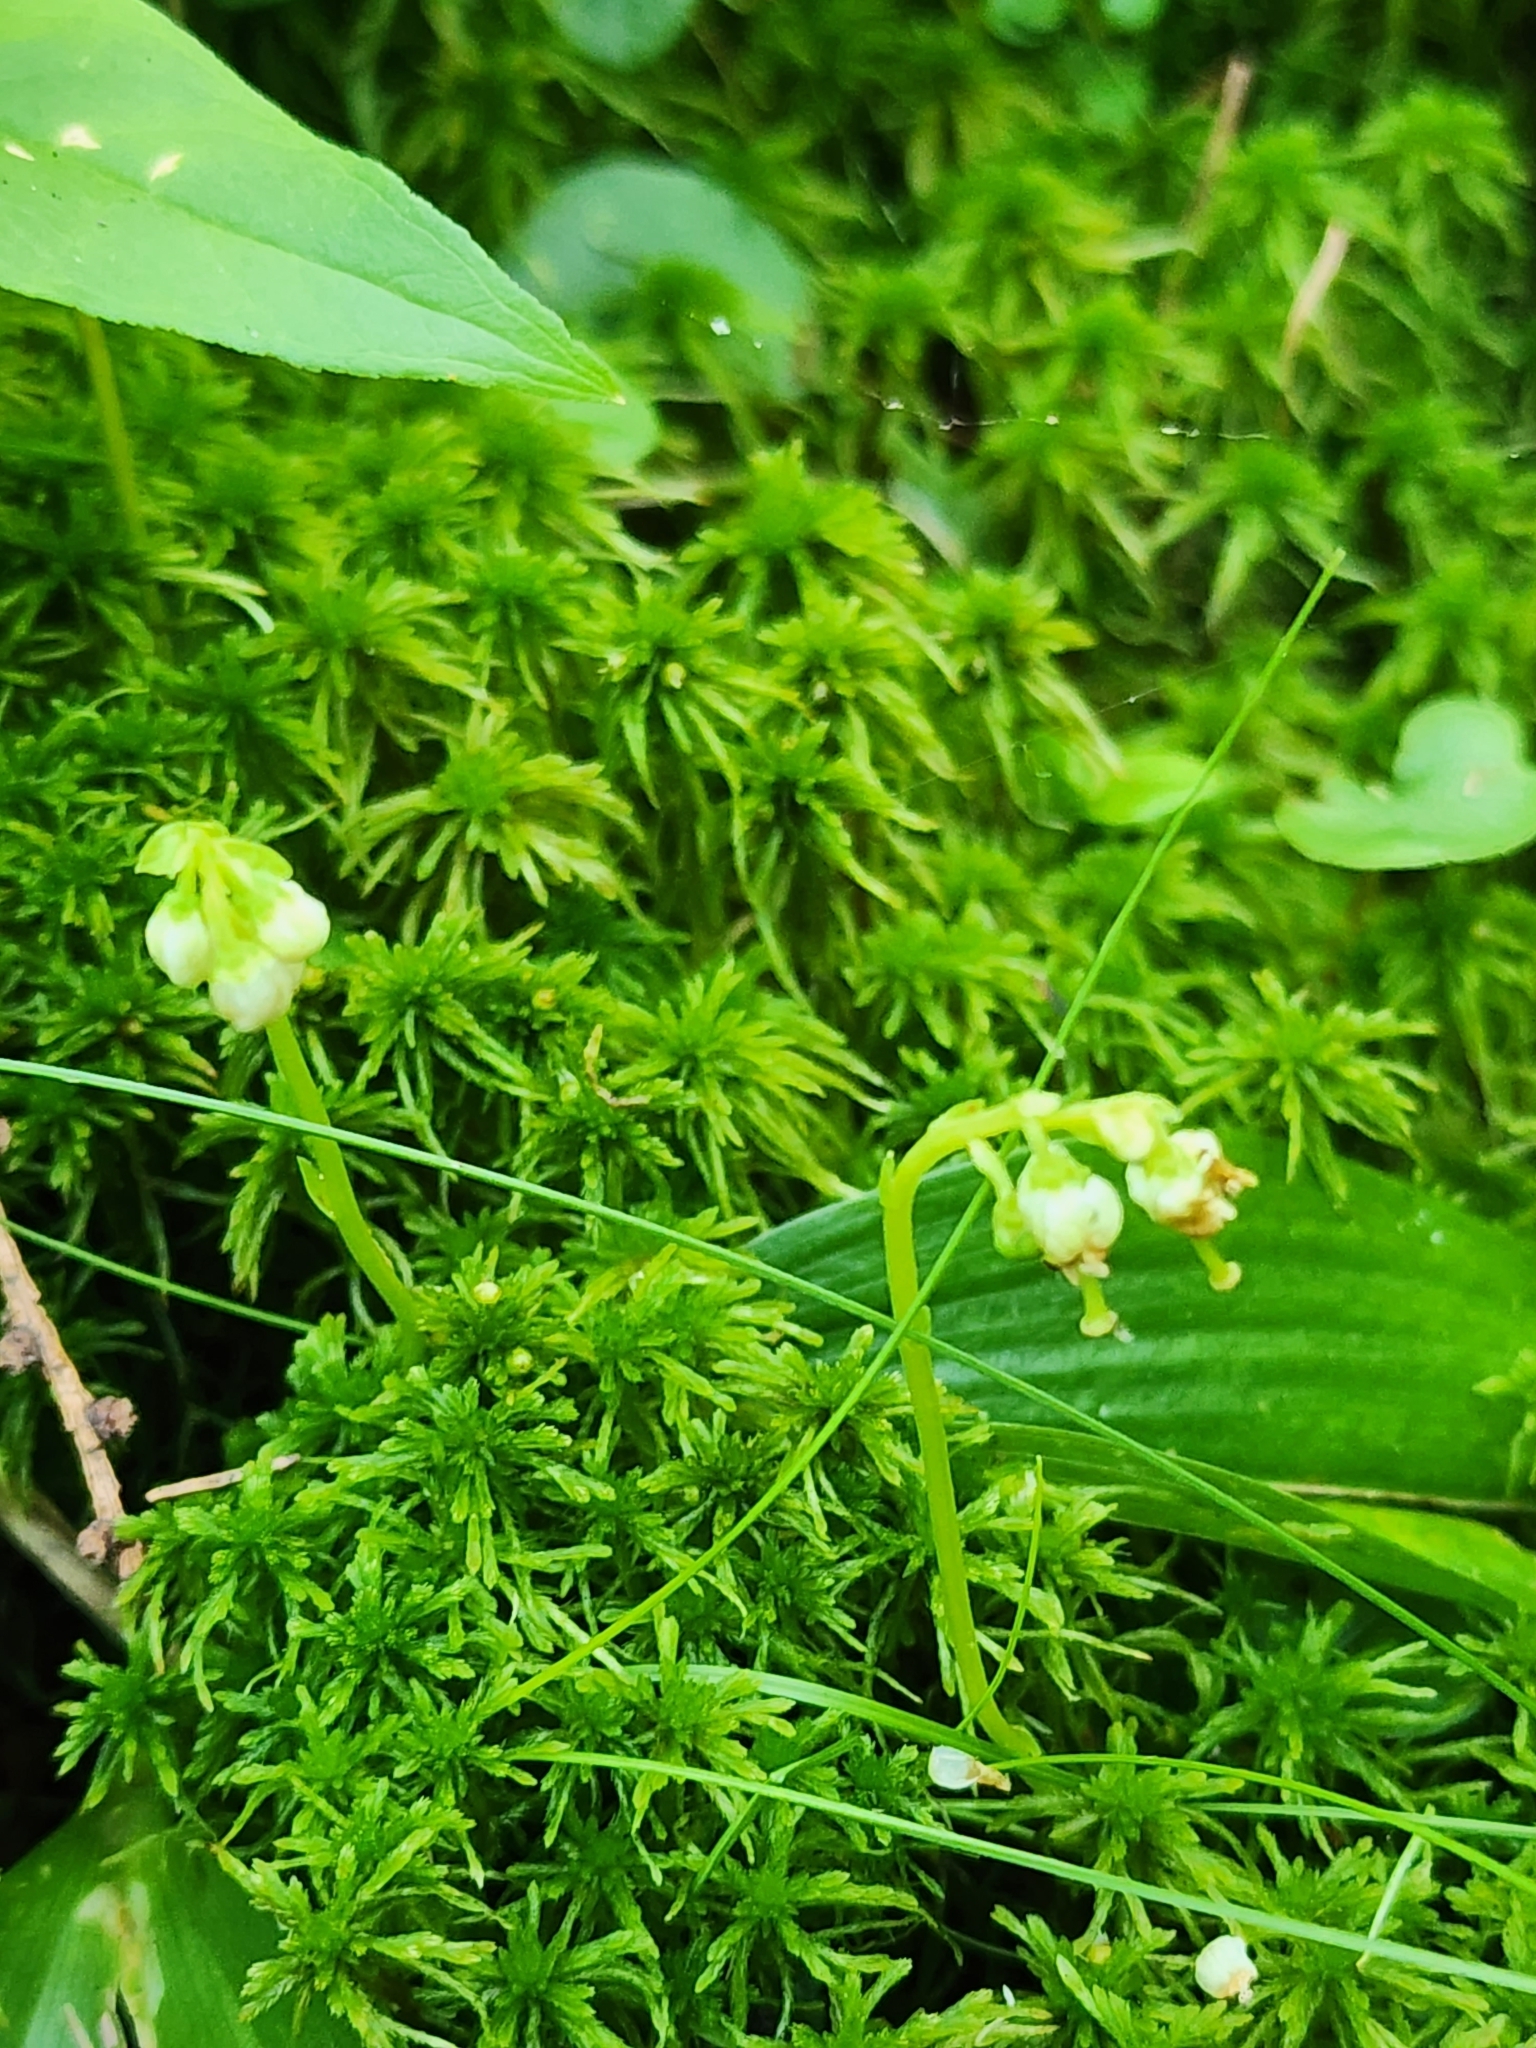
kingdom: Plantae
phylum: Tracheophyta
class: Magnoliopsida
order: Ericales
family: Ericaceae
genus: Orthilia
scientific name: Orthilia secunda
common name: One-sided orthilia
